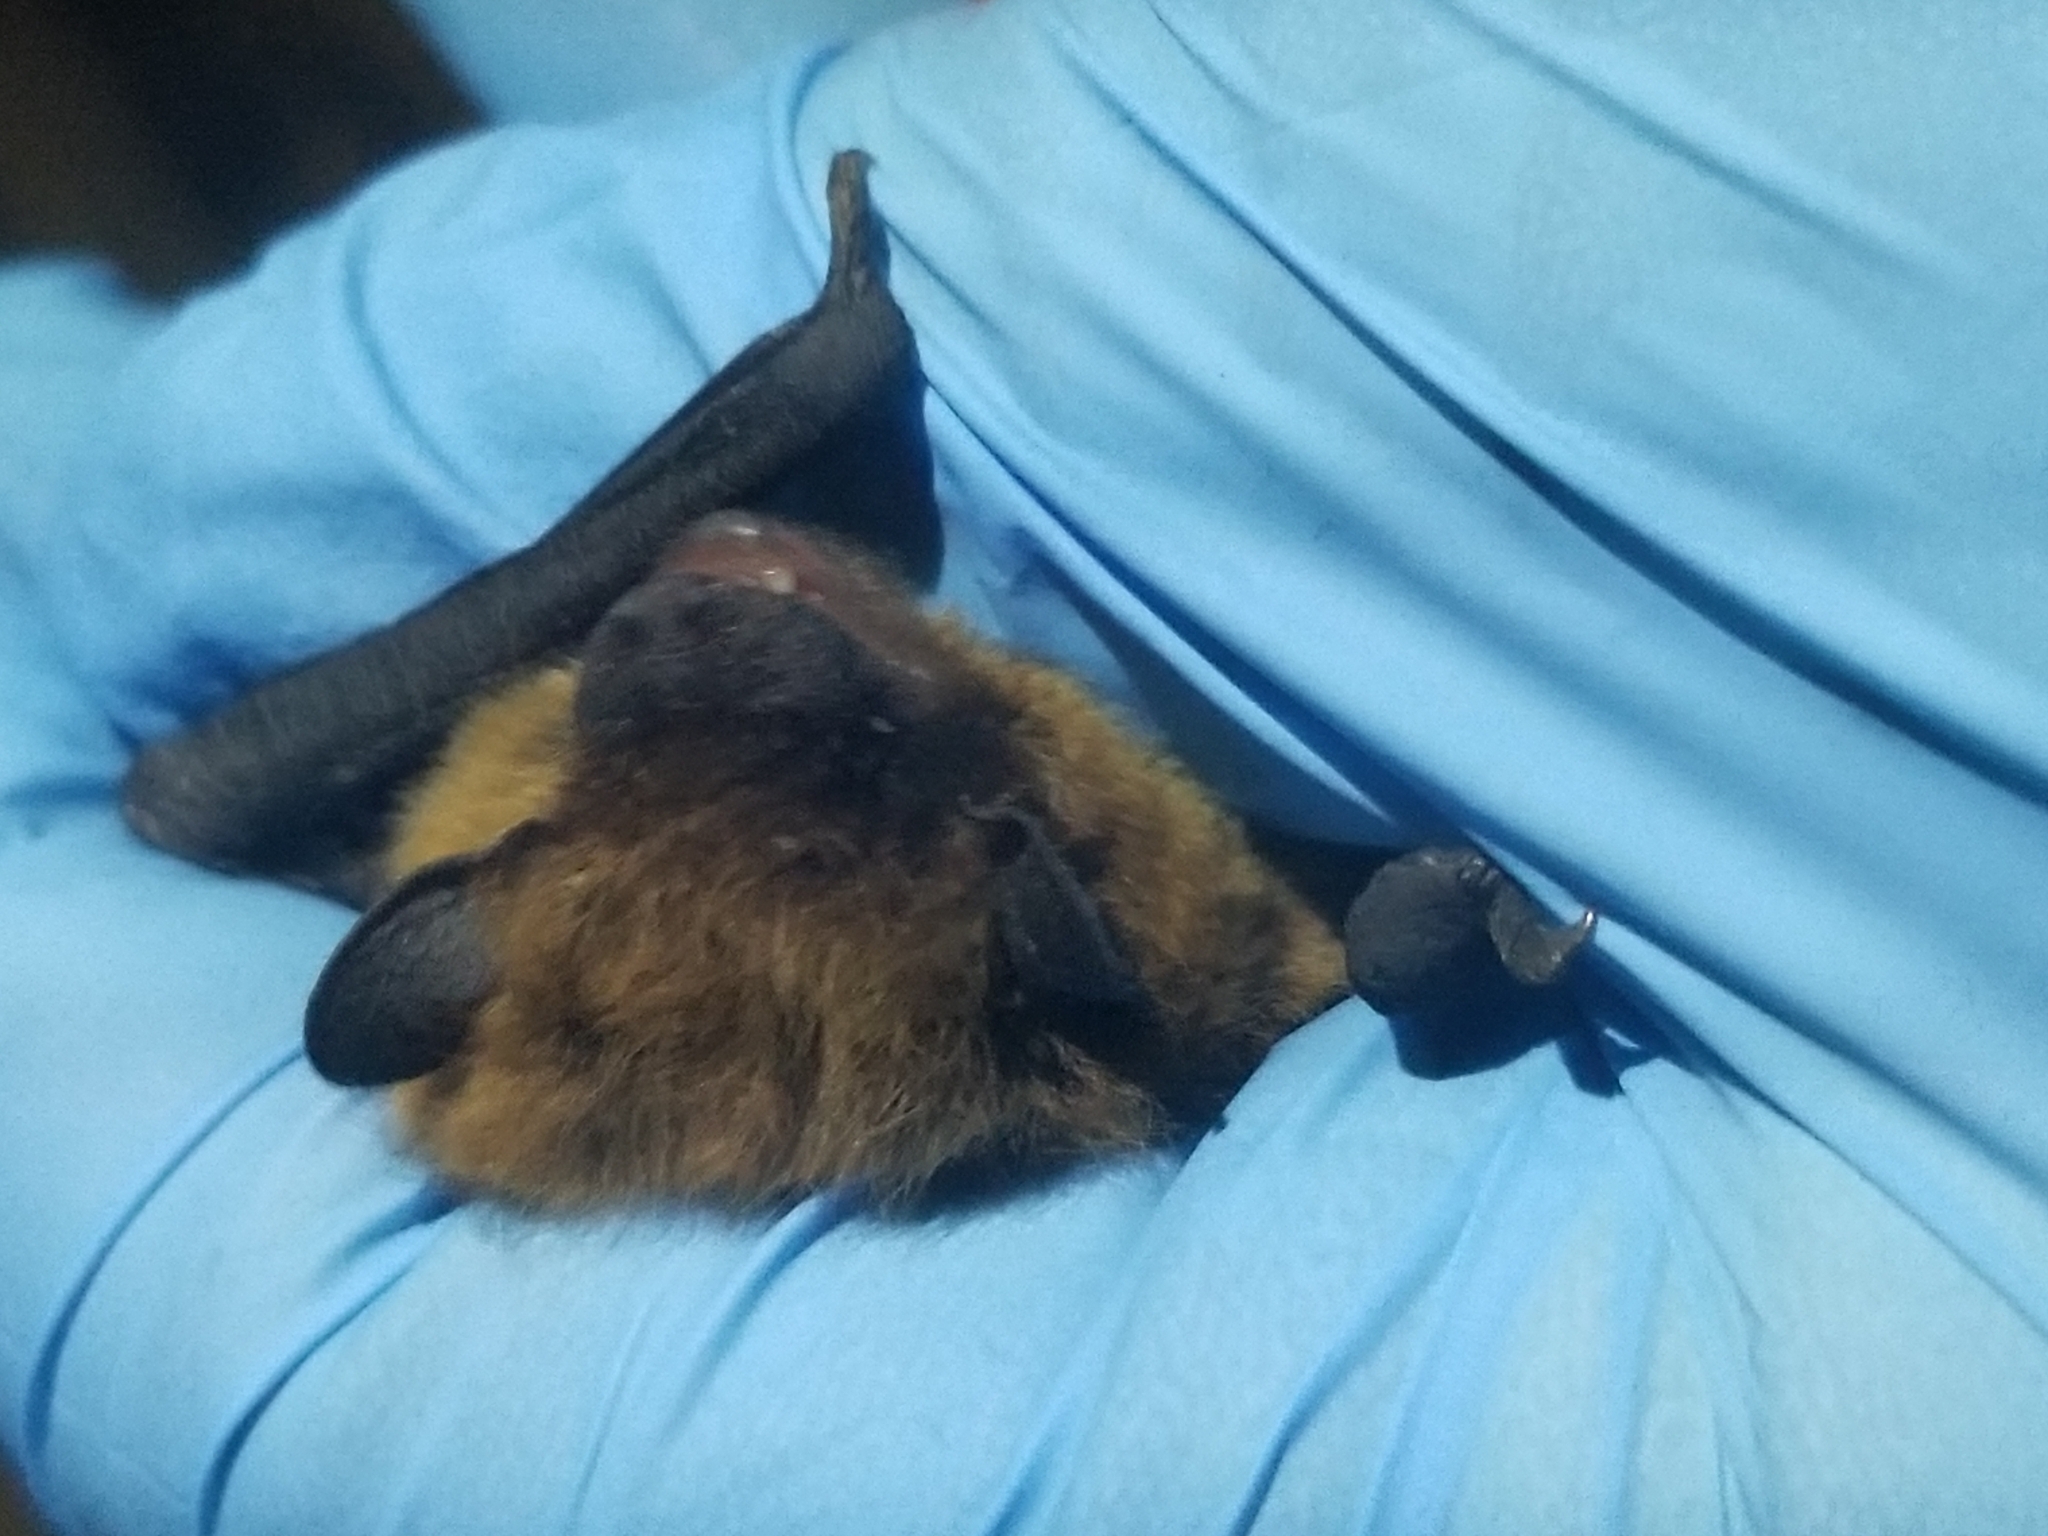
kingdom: Animalia
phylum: Chordata
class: Mammalia
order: Chiroptera
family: Vespertilionidae
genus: Nycticeius
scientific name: Nycticeius humeralis
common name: Evening bat
